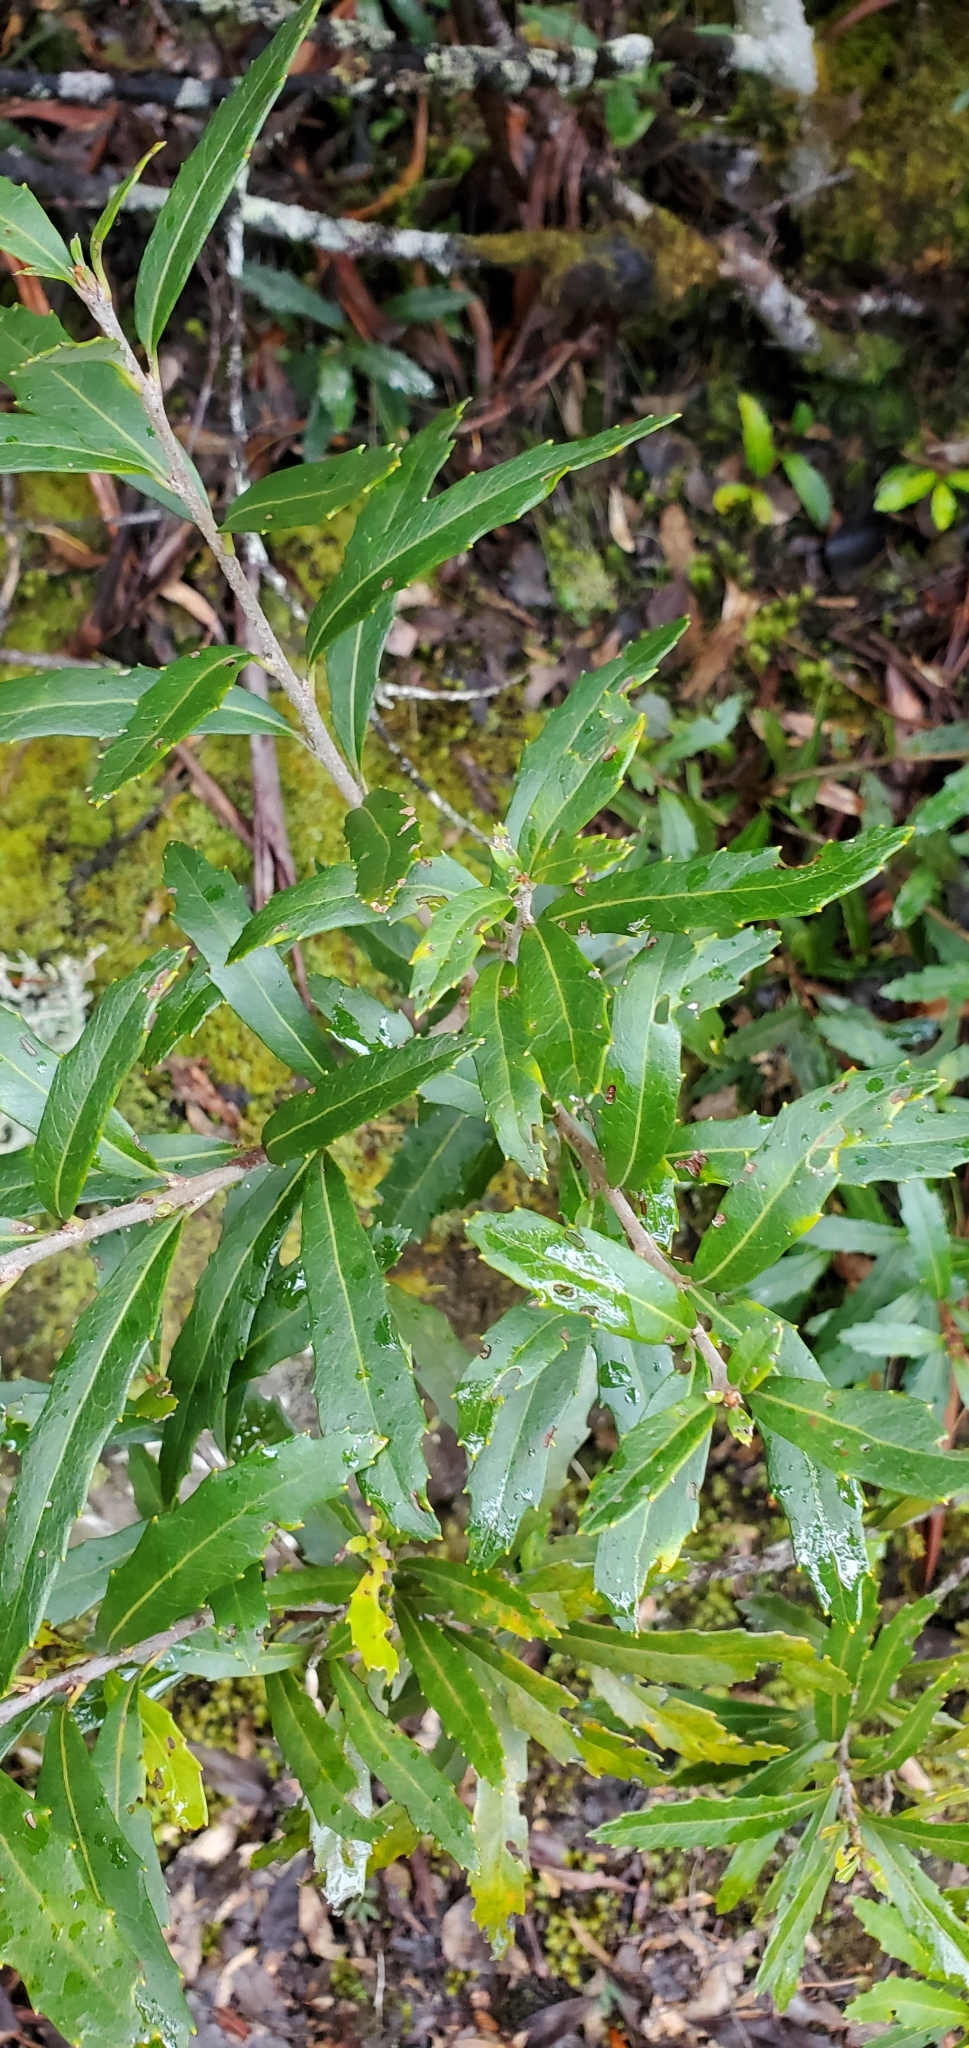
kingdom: Plantae
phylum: Tracheophyta
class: Magnoliopsida
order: Proteales
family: Proteaceae
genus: Orites
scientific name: Orites diversifolius
